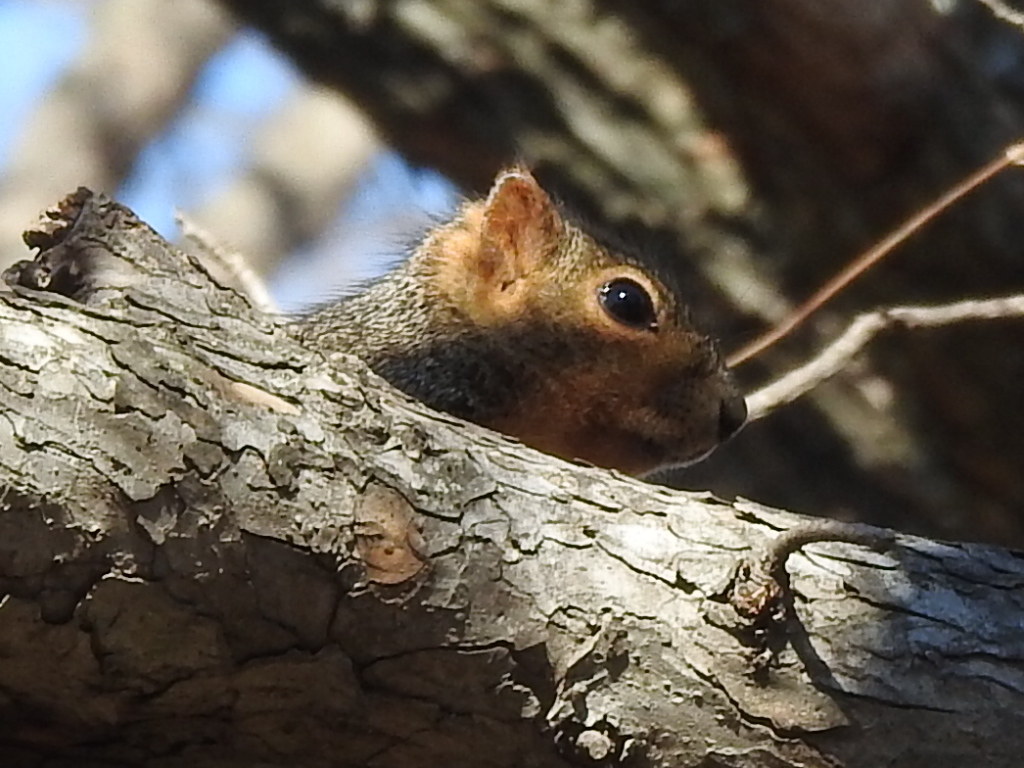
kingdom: Animalia
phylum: Chordata
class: Mammalia
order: Rodentia
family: Sciuridae
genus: Sciurus
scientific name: Sciurus niger
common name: Fox squirrel
